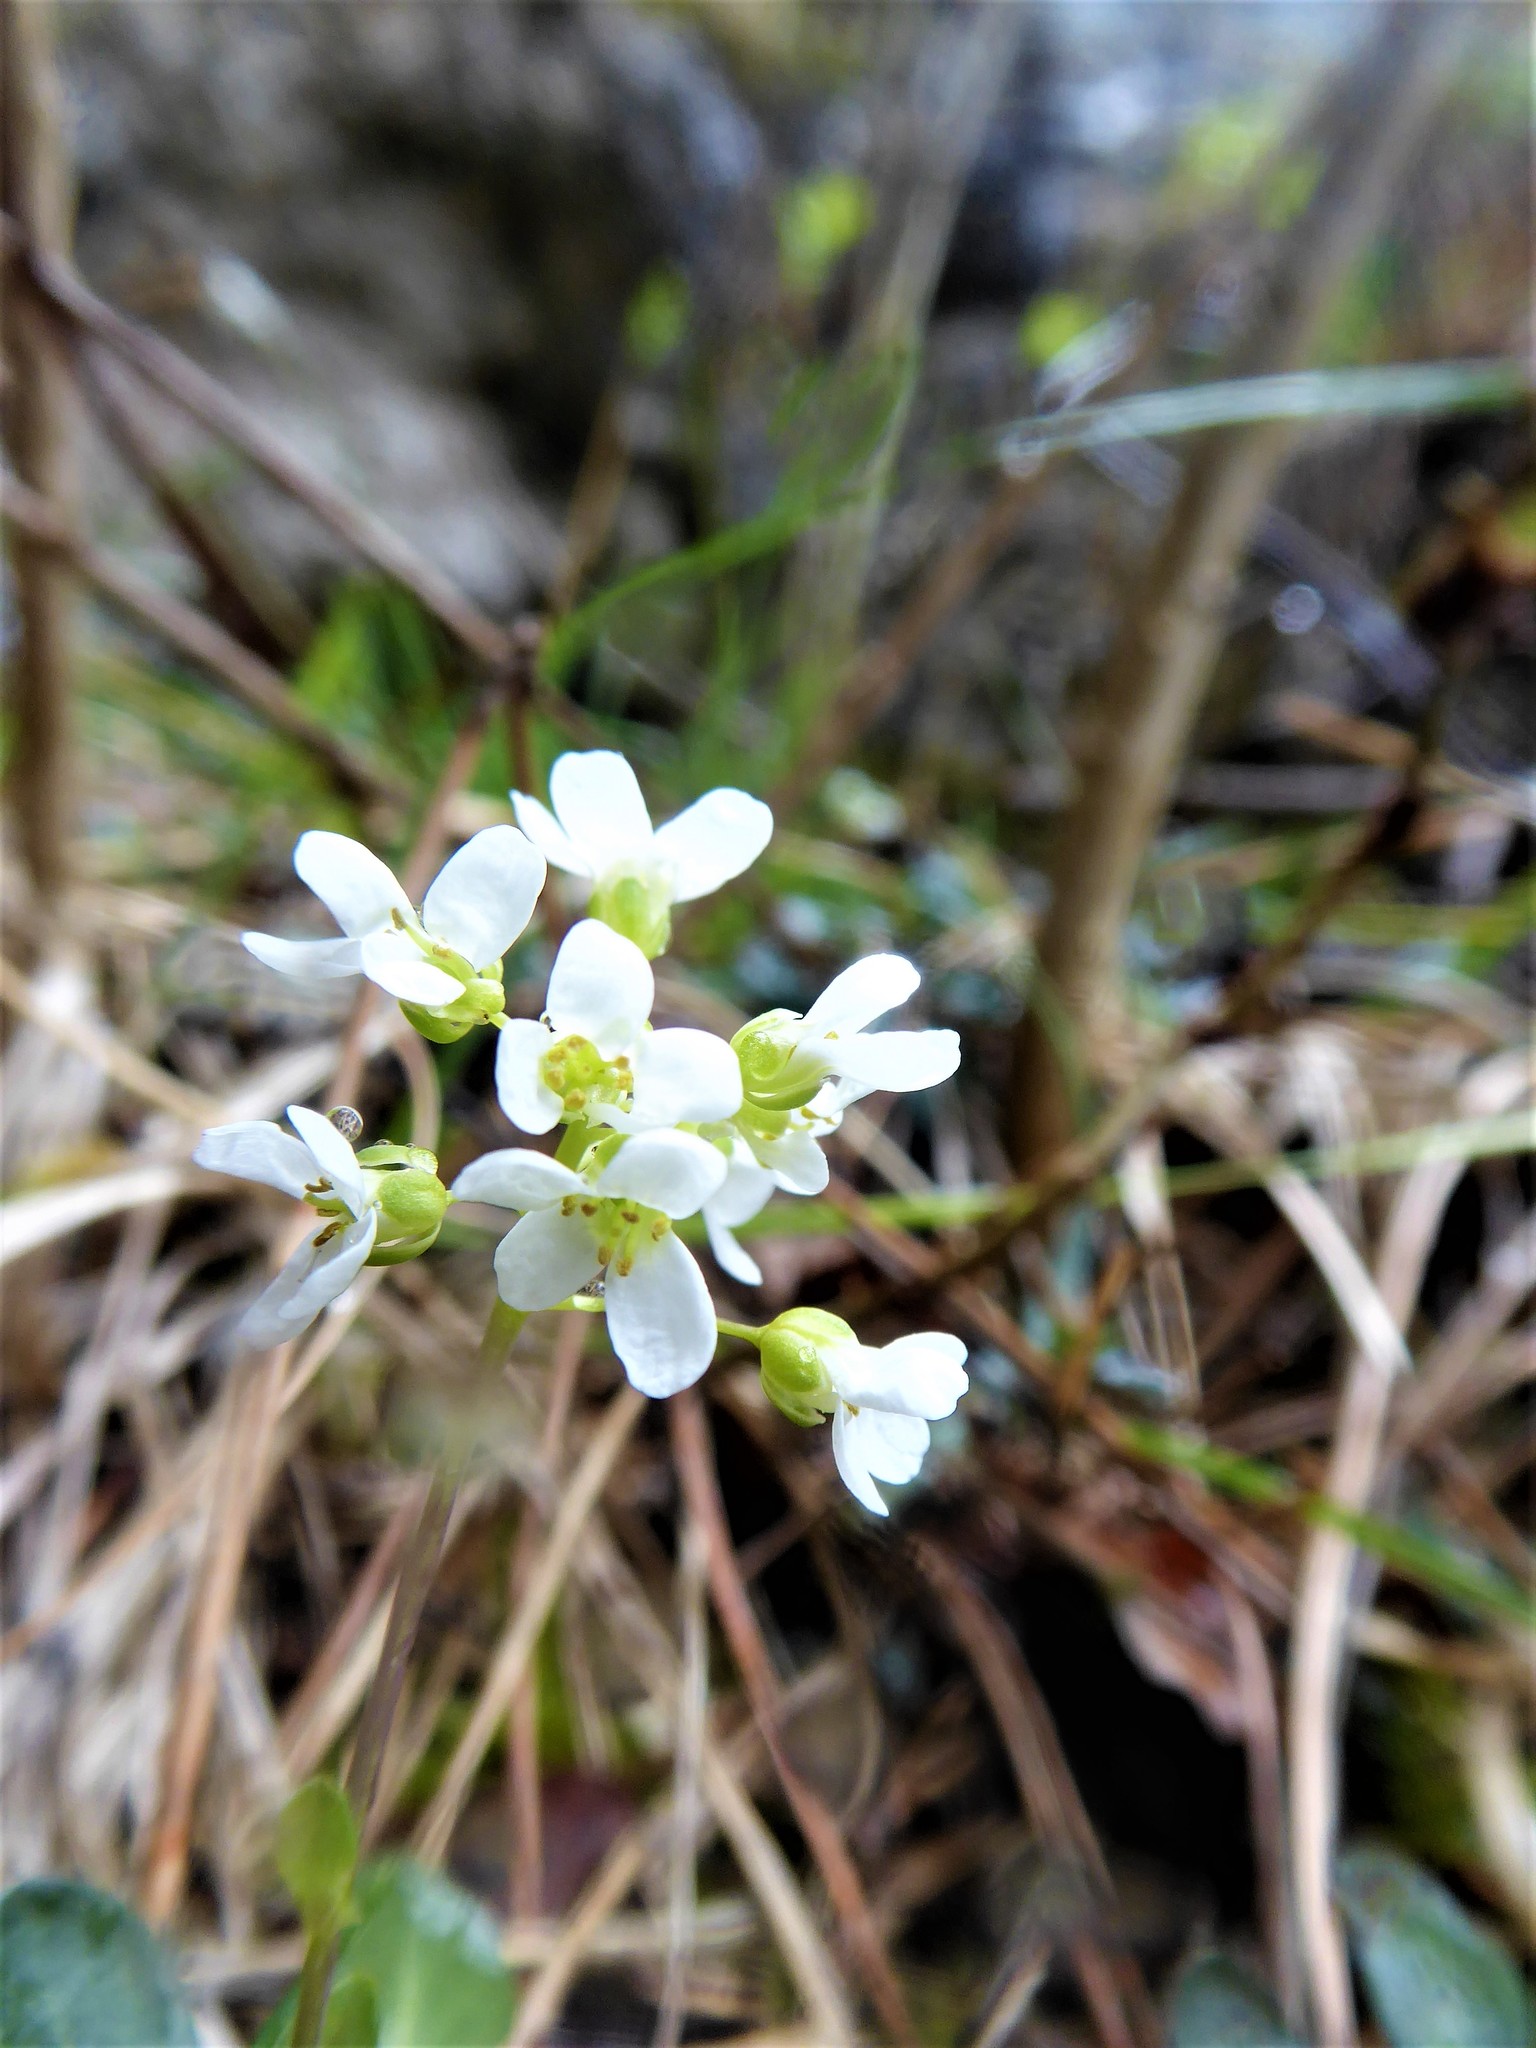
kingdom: Plantae
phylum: Tracheophyta
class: Magnoliopsida
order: Brassicales
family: Brassicaceae
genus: Noccaea
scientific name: Noccaea montana
